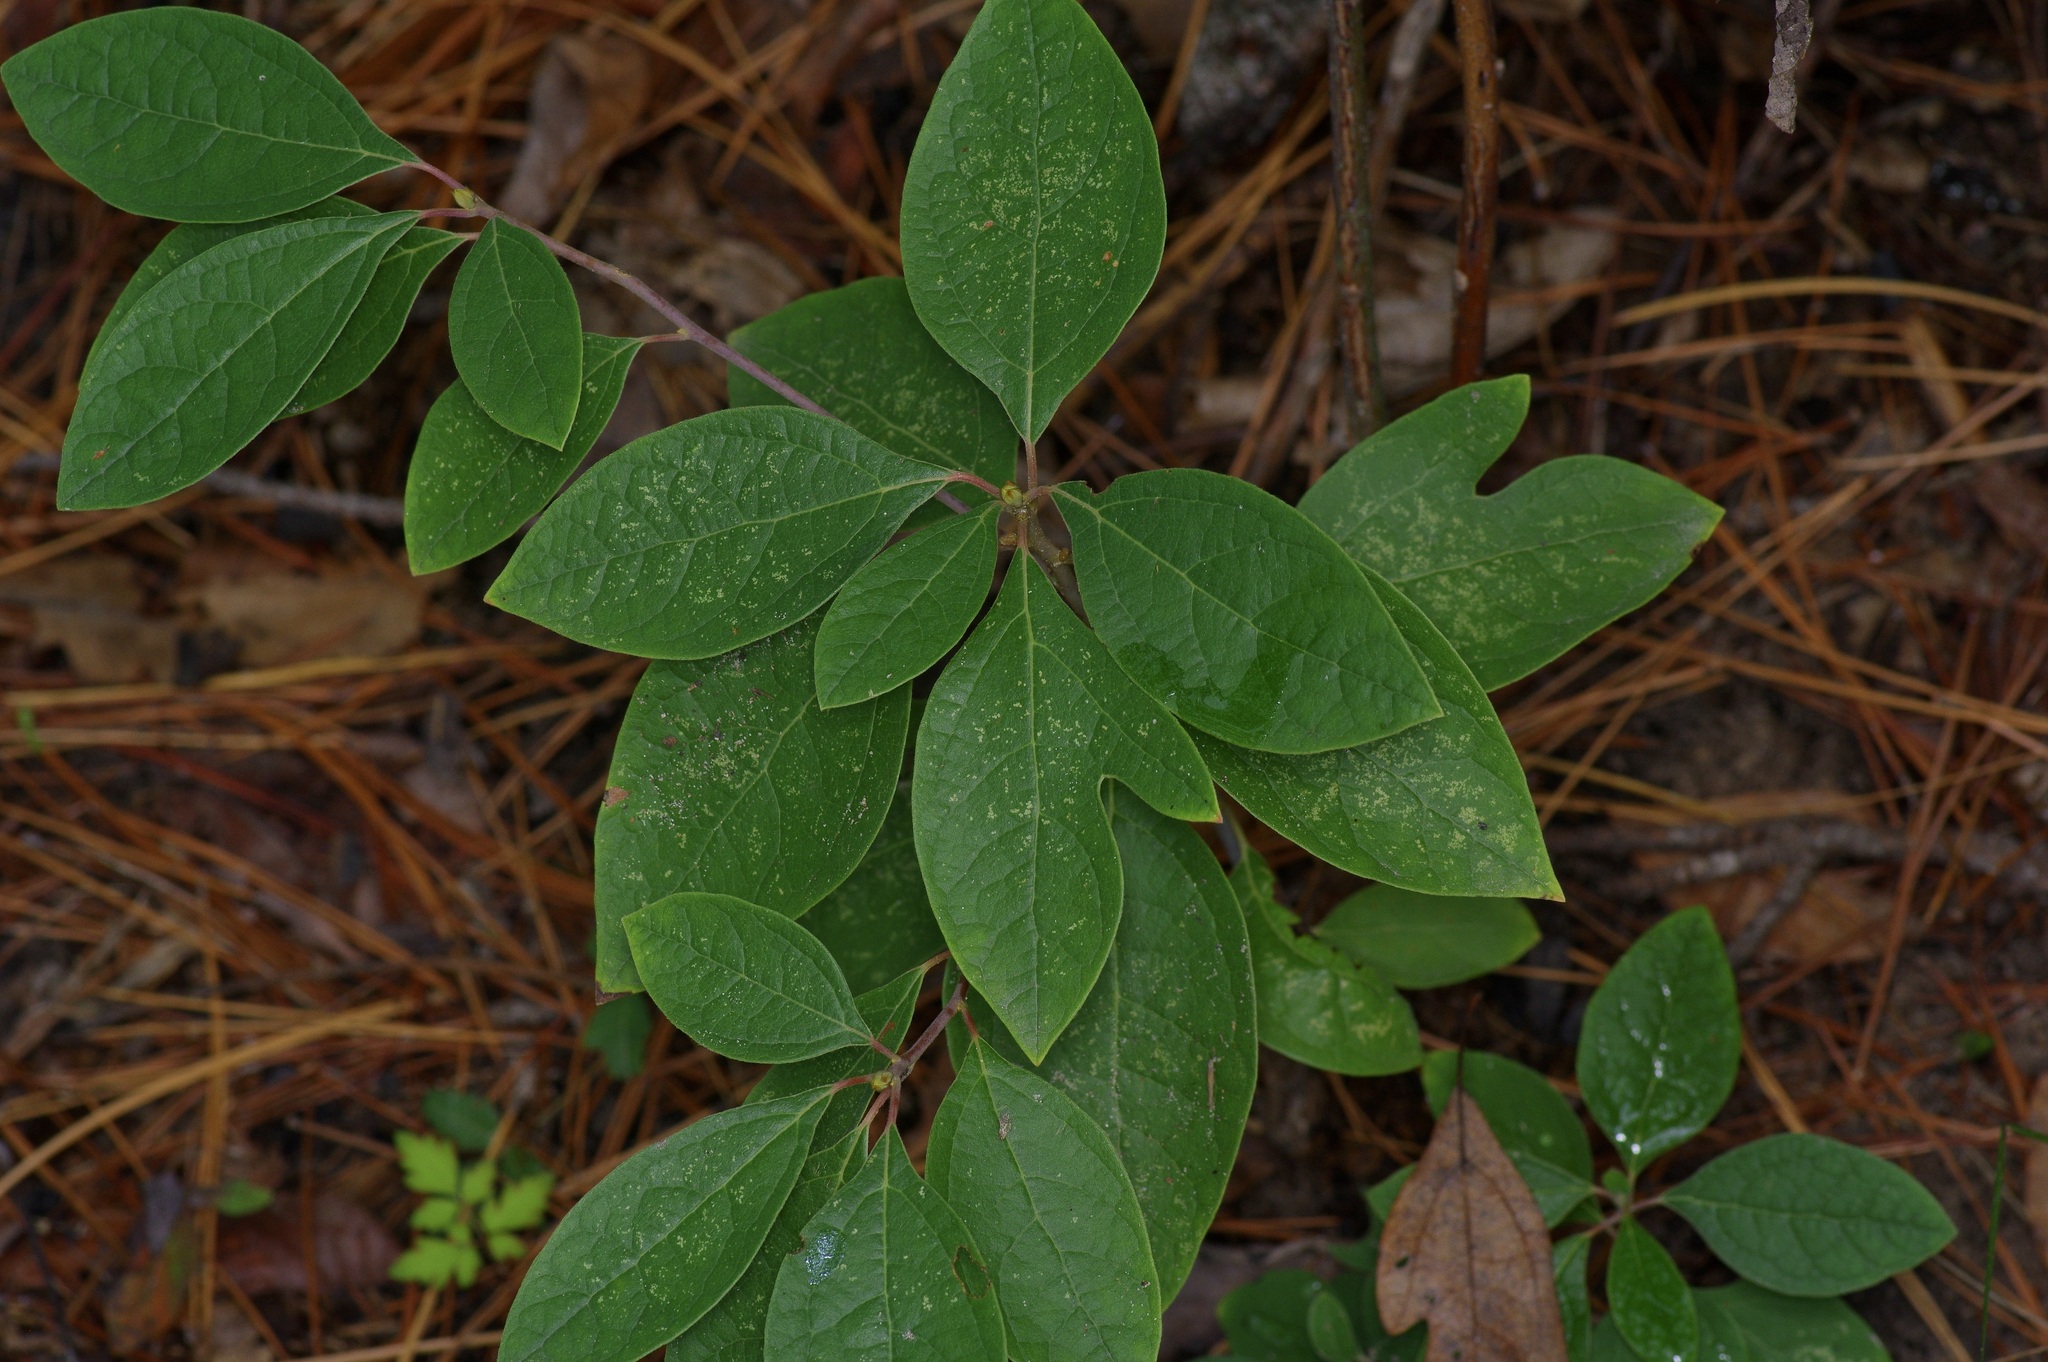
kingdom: Plantae
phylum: Tracheophyta
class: Magnoliopsida
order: Laurales
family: Lauraceae
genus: Sassafras
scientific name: Sassafras albidum
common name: Sassafras
